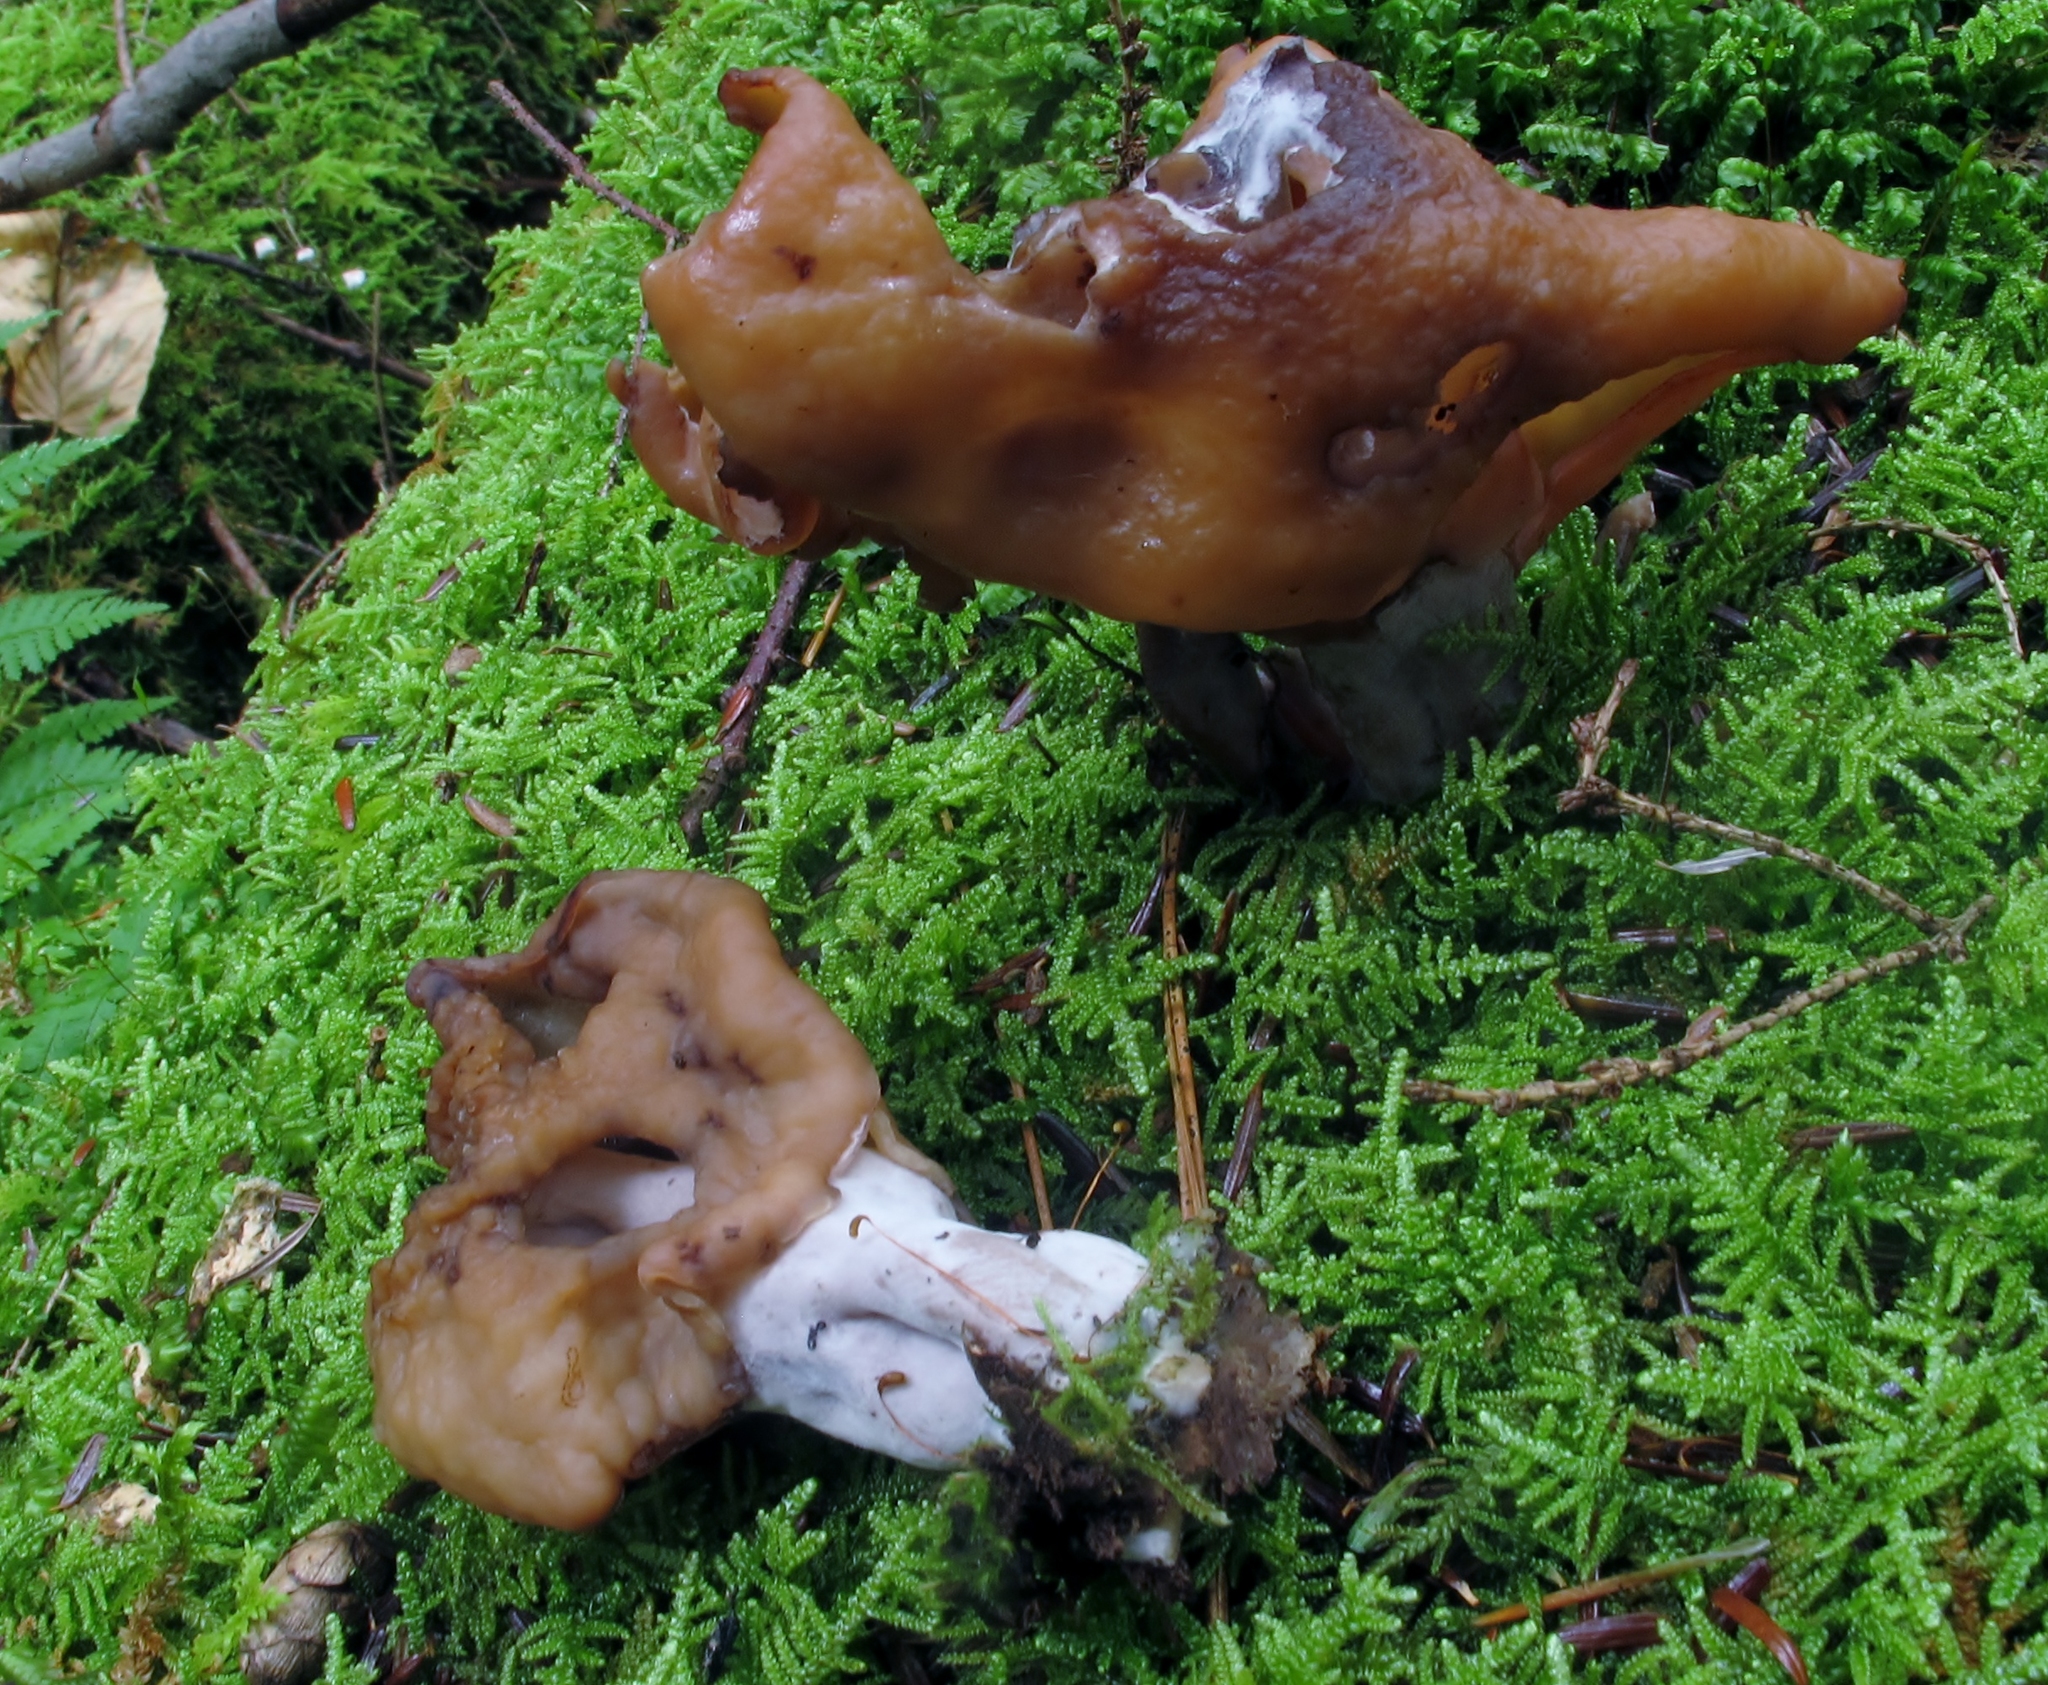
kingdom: Fungi
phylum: Ascomycota
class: Pezizomycetes
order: Pezizales
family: Discinaceae
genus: Gyromitra
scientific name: Gyromitra infula
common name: Pouched false morel
